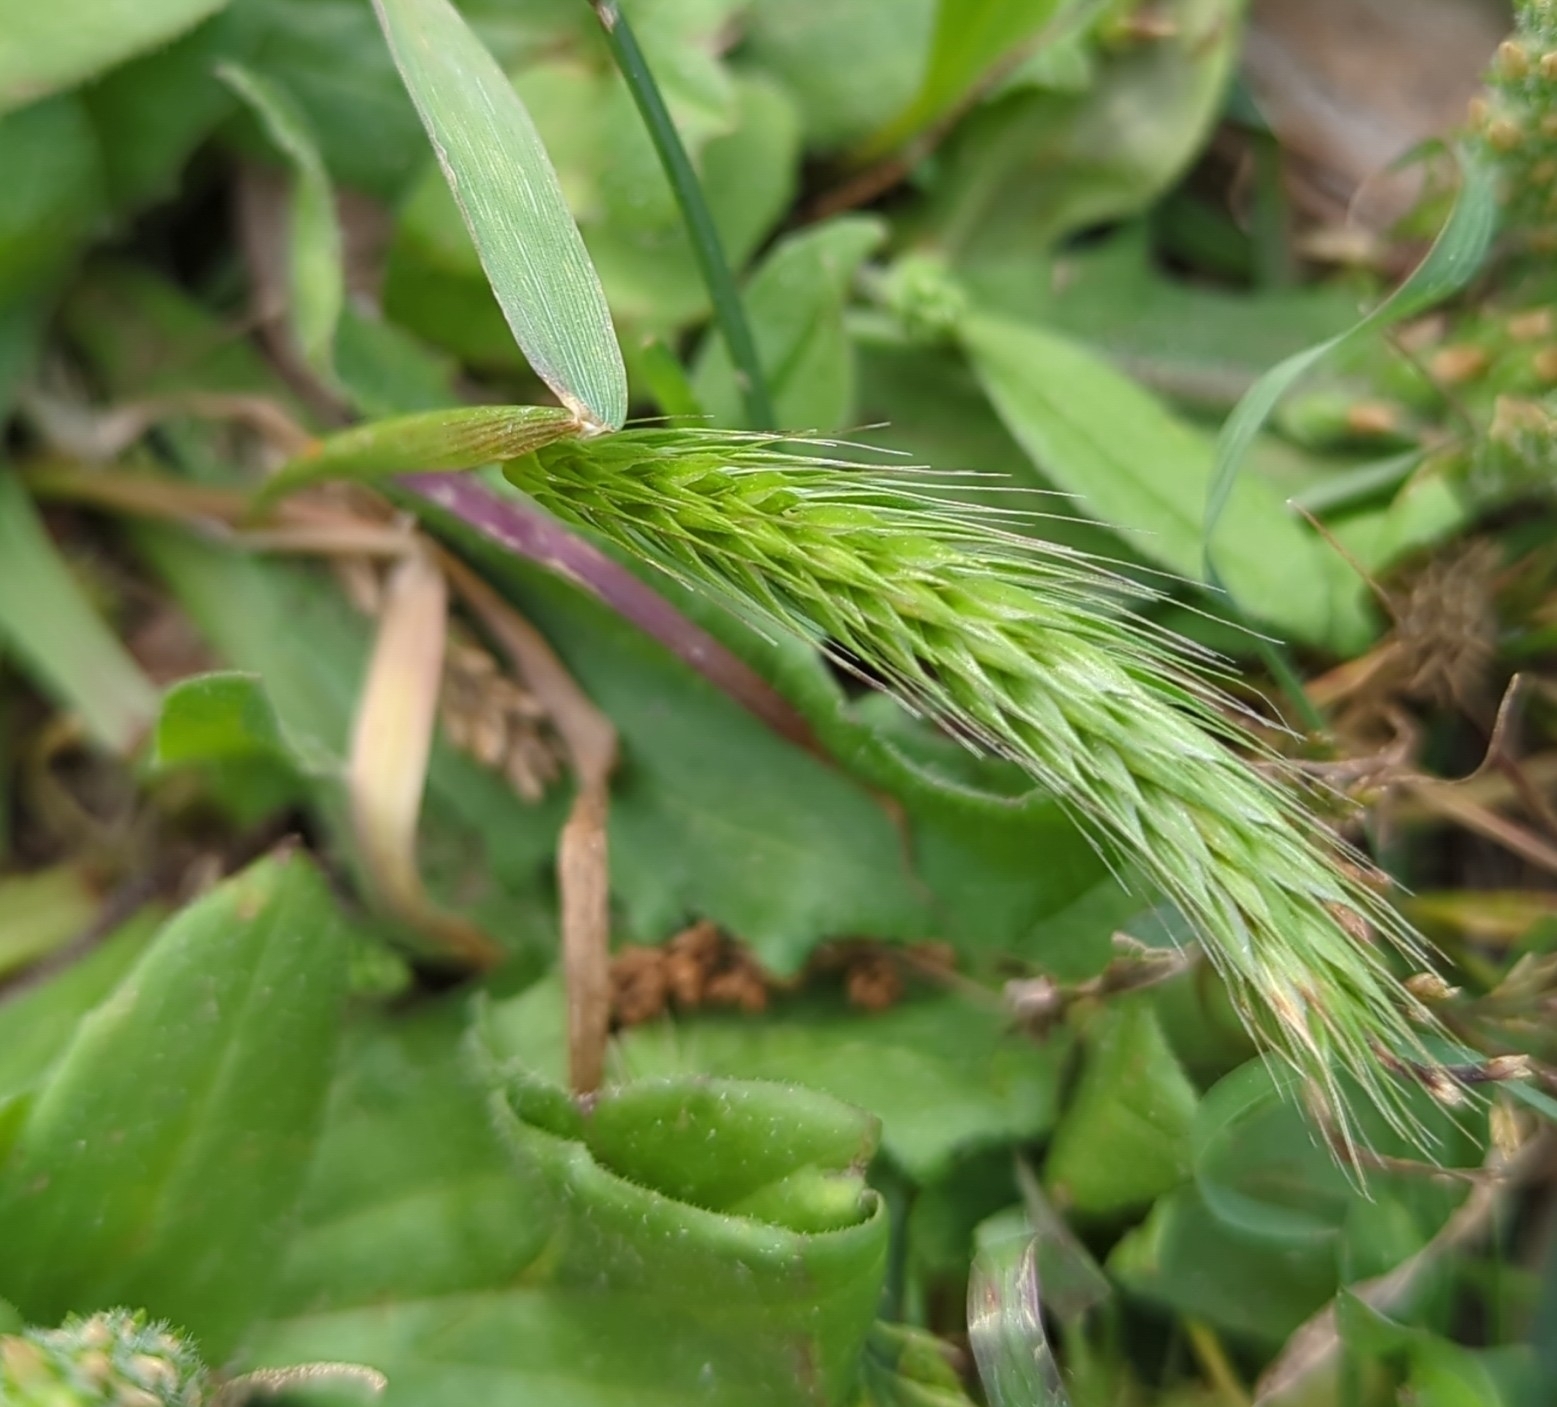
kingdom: Plantae
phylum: Tracheophyta
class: Liliopsida
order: Poales
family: Poaceae
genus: Hordeum
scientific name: Hordeum pusillum
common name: Little barley
